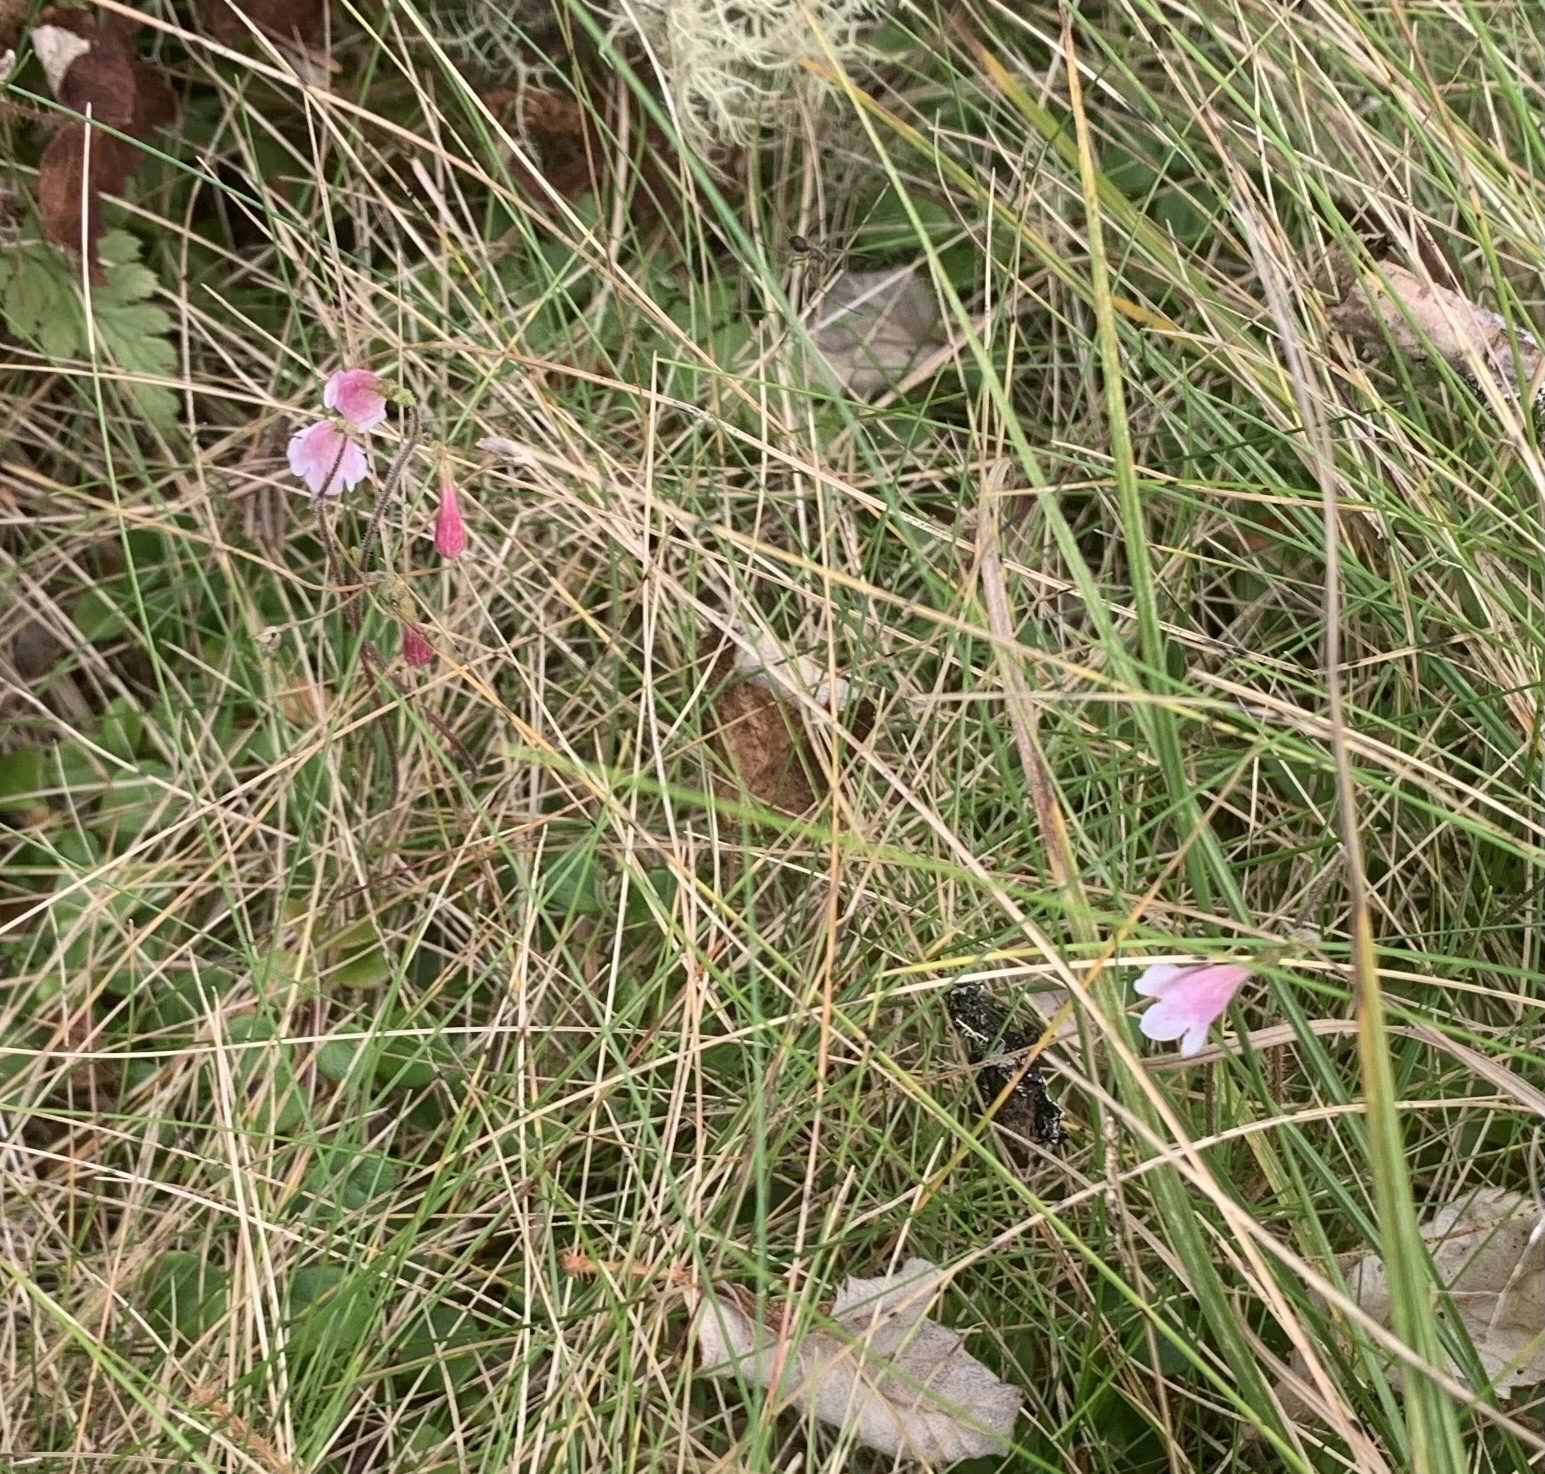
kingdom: Plantae
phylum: Tracheophyta
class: Magnoliopsida
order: Dipsacales
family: Caprifoliaceae
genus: Linnaea
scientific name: Linnaea borealis
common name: Twinflower
